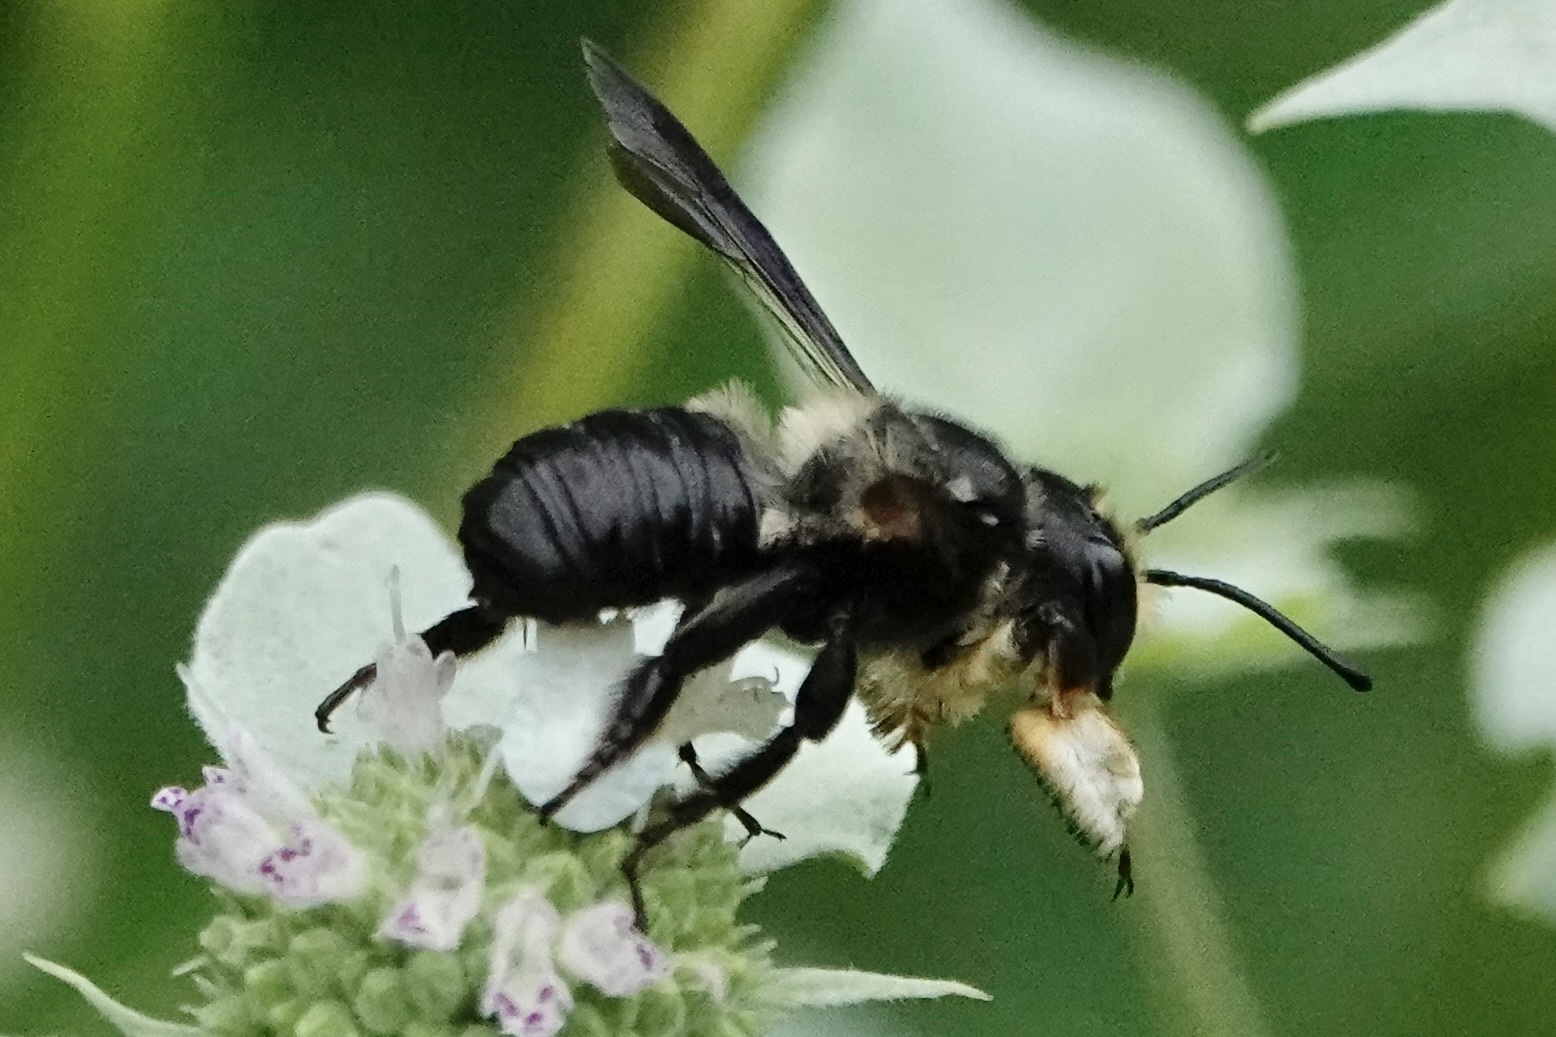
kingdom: Animalia
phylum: Arthropoda
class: Insecta
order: Hymenoptera
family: Megachilidae
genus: Megachile
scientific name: Megachile xylocopoides
